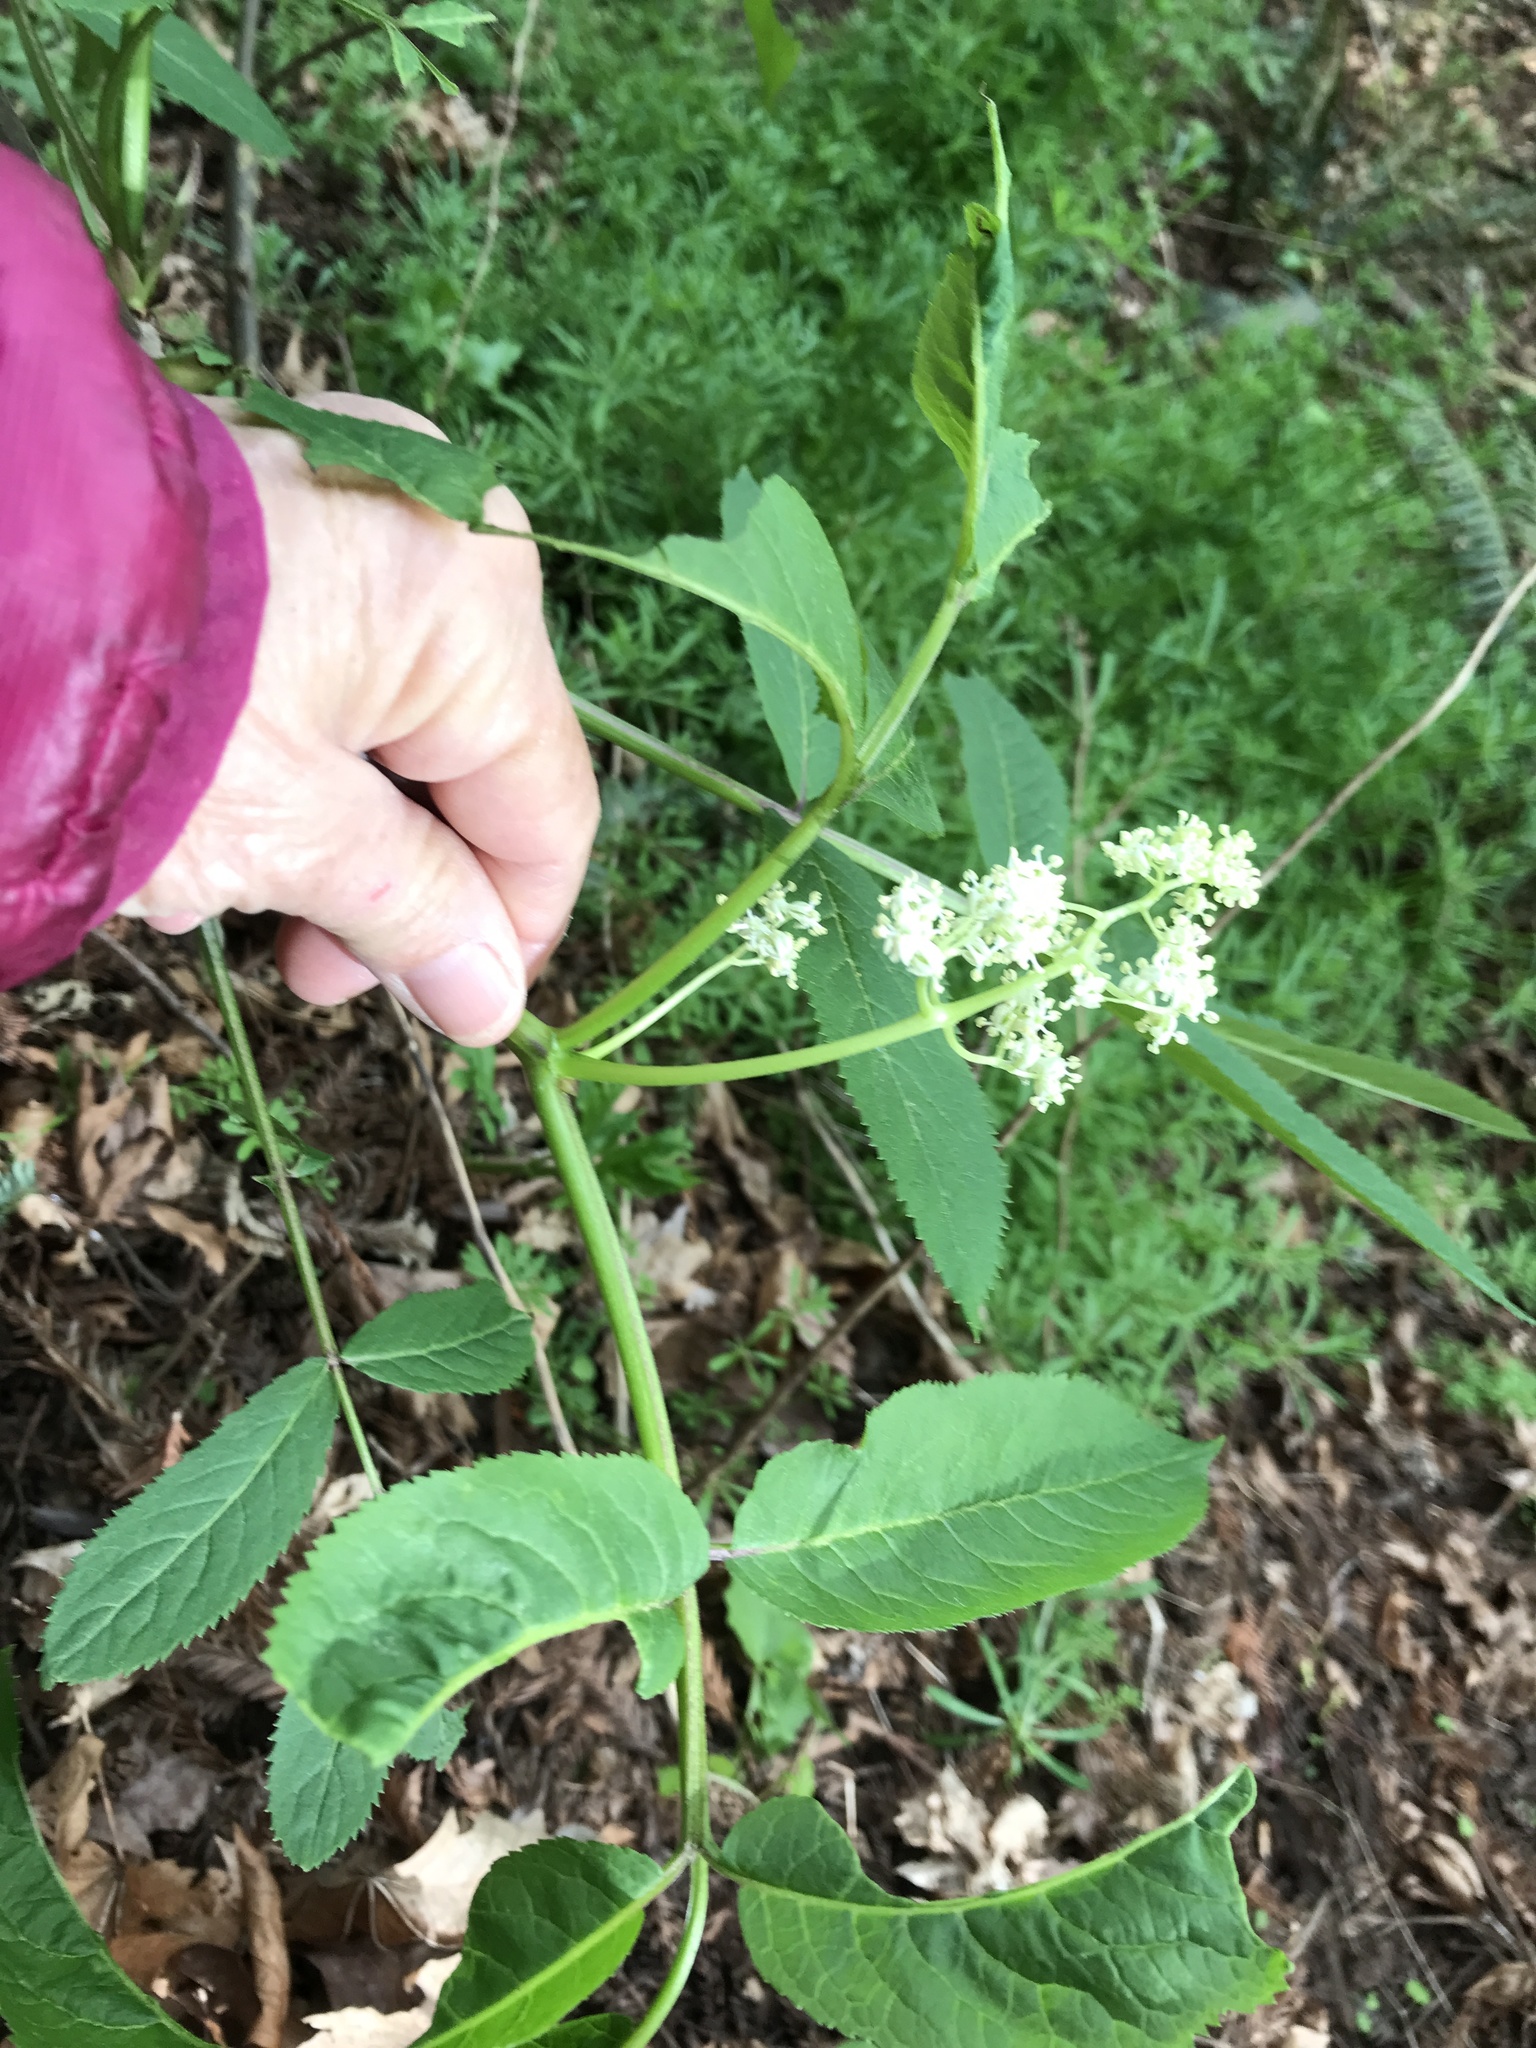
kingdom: Plantae
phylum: Tracheophyta
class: Magnoliopsida
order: Dipsacales
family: Viburnaceae
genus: Sambucus
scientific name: Sambucus racemosa
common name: Red-berried elder
